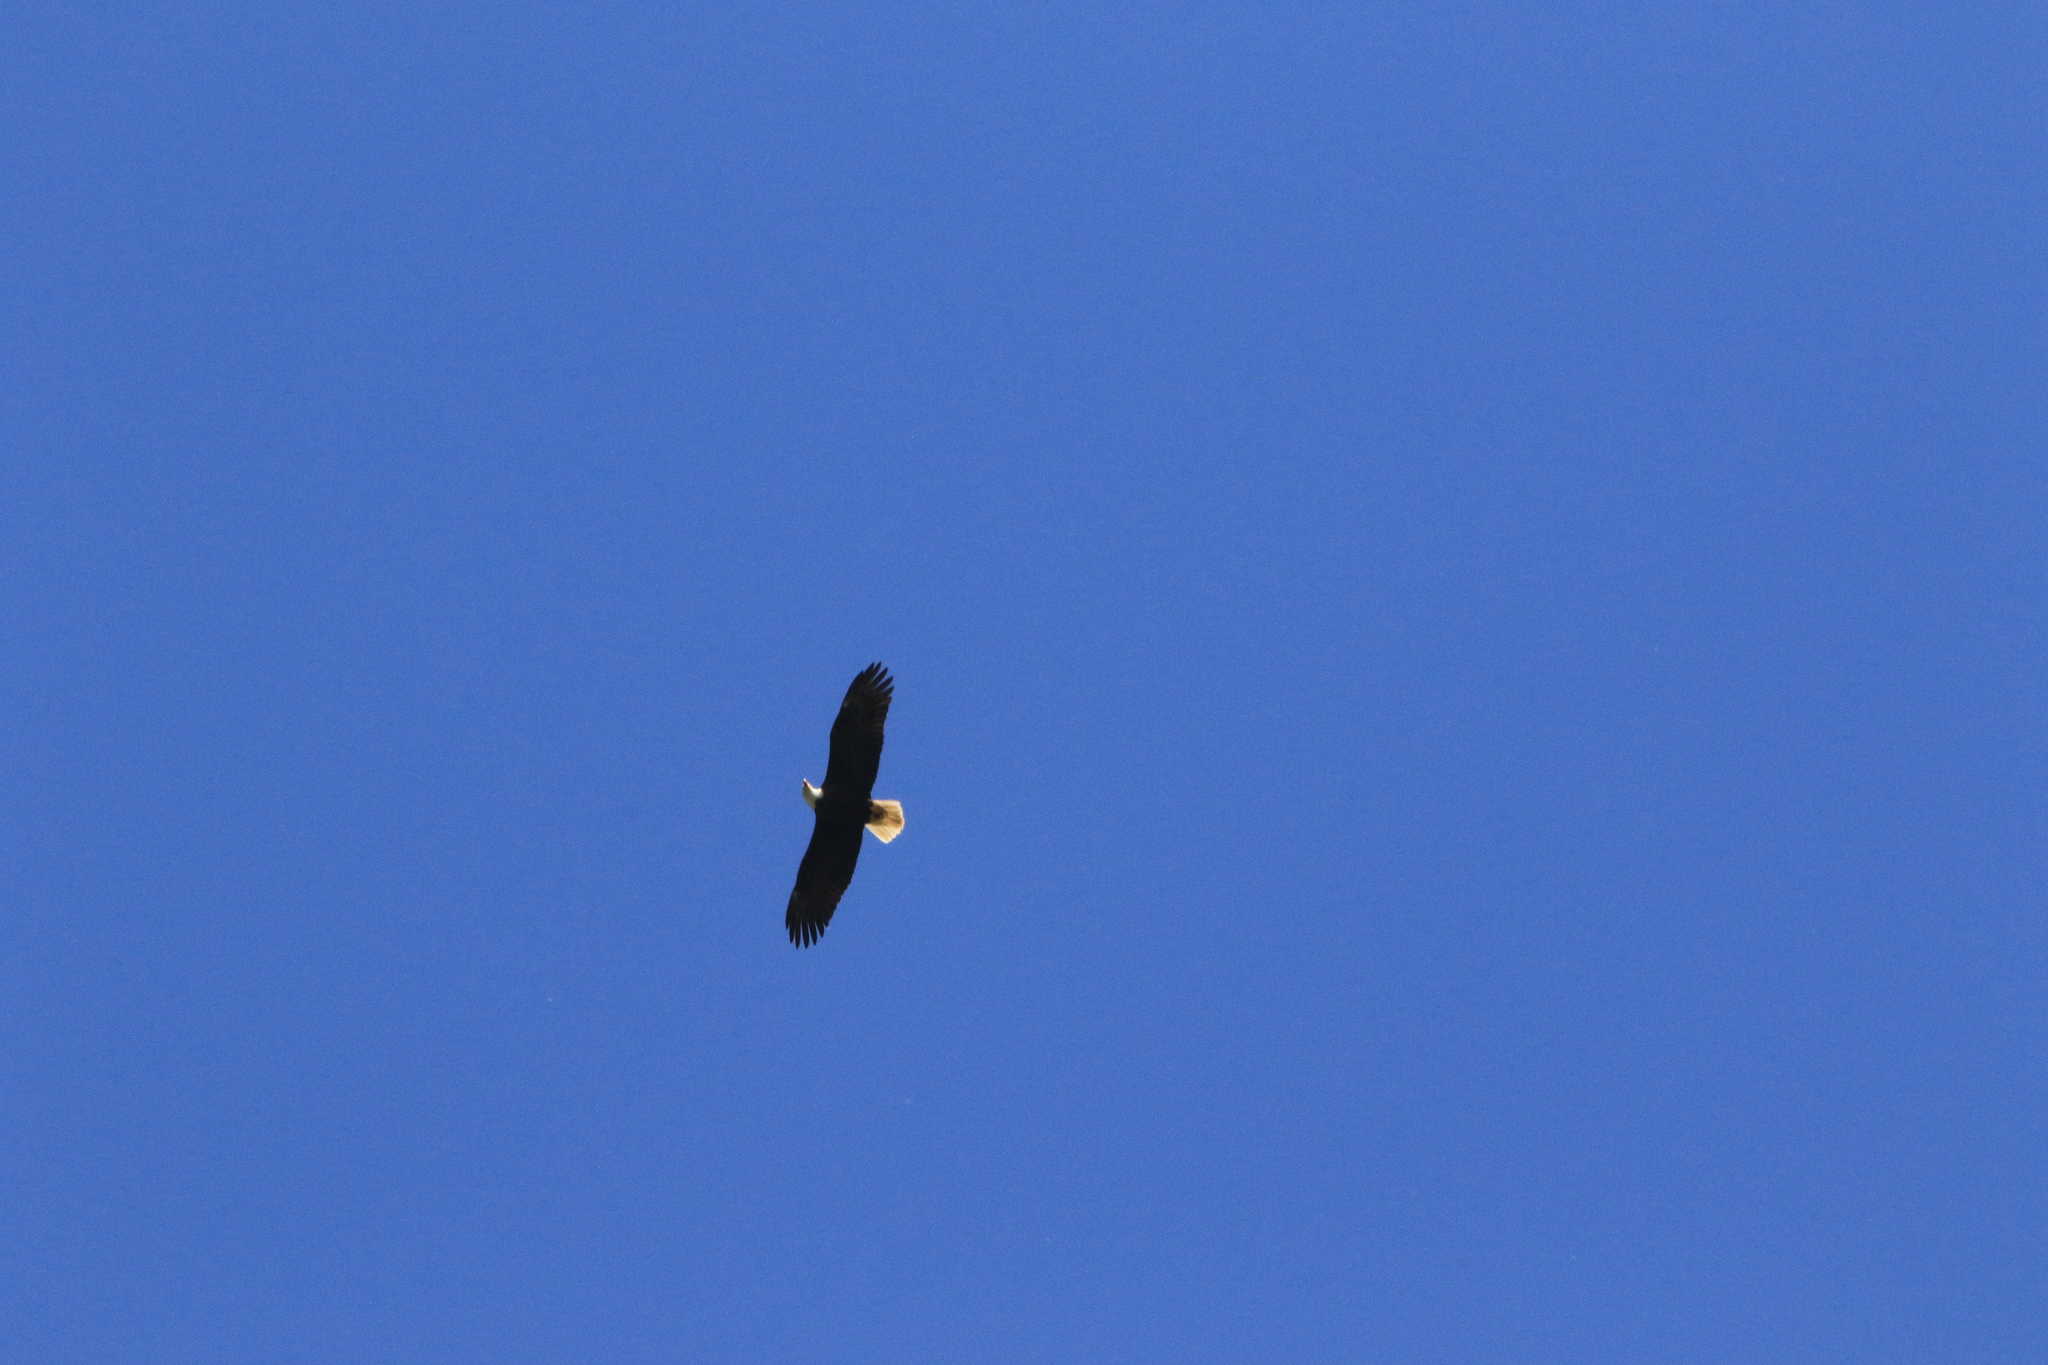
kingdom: Animalia
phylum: Chordata
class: Aves
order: Accipitriformes
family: Accipitridae
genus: Haliaeetus
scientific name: Haliaeetus leucocephalus
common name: Bald eagle
